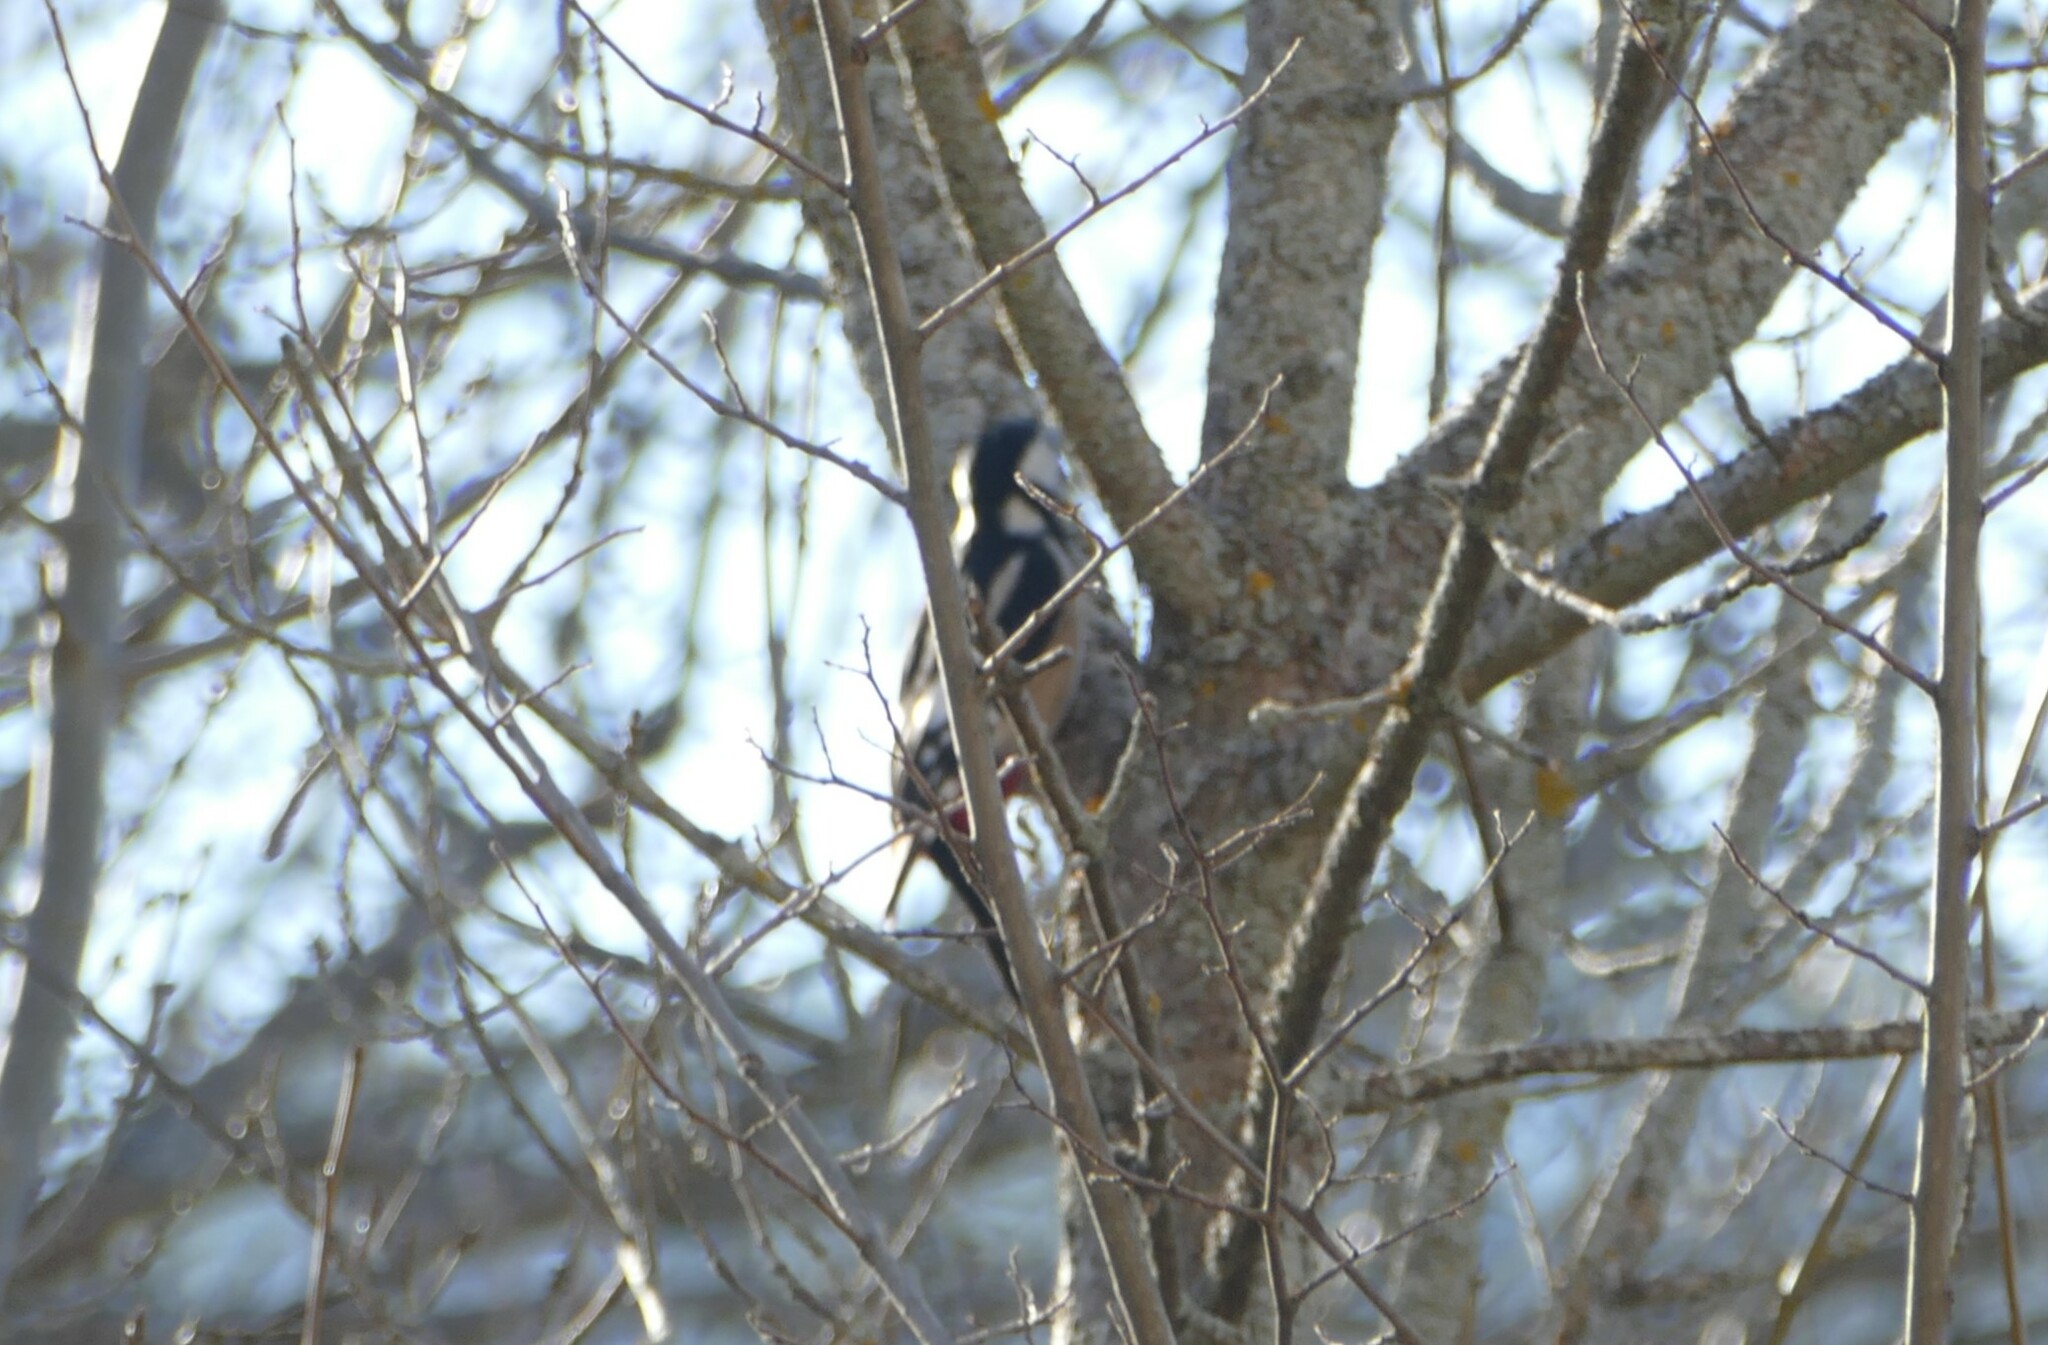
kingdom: Animalia
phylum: Chordata
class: Aves
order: Piciformes
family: Picidae
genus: Dendrocopos
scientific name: Dendrocopos major
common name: Great spotted woodpecker
